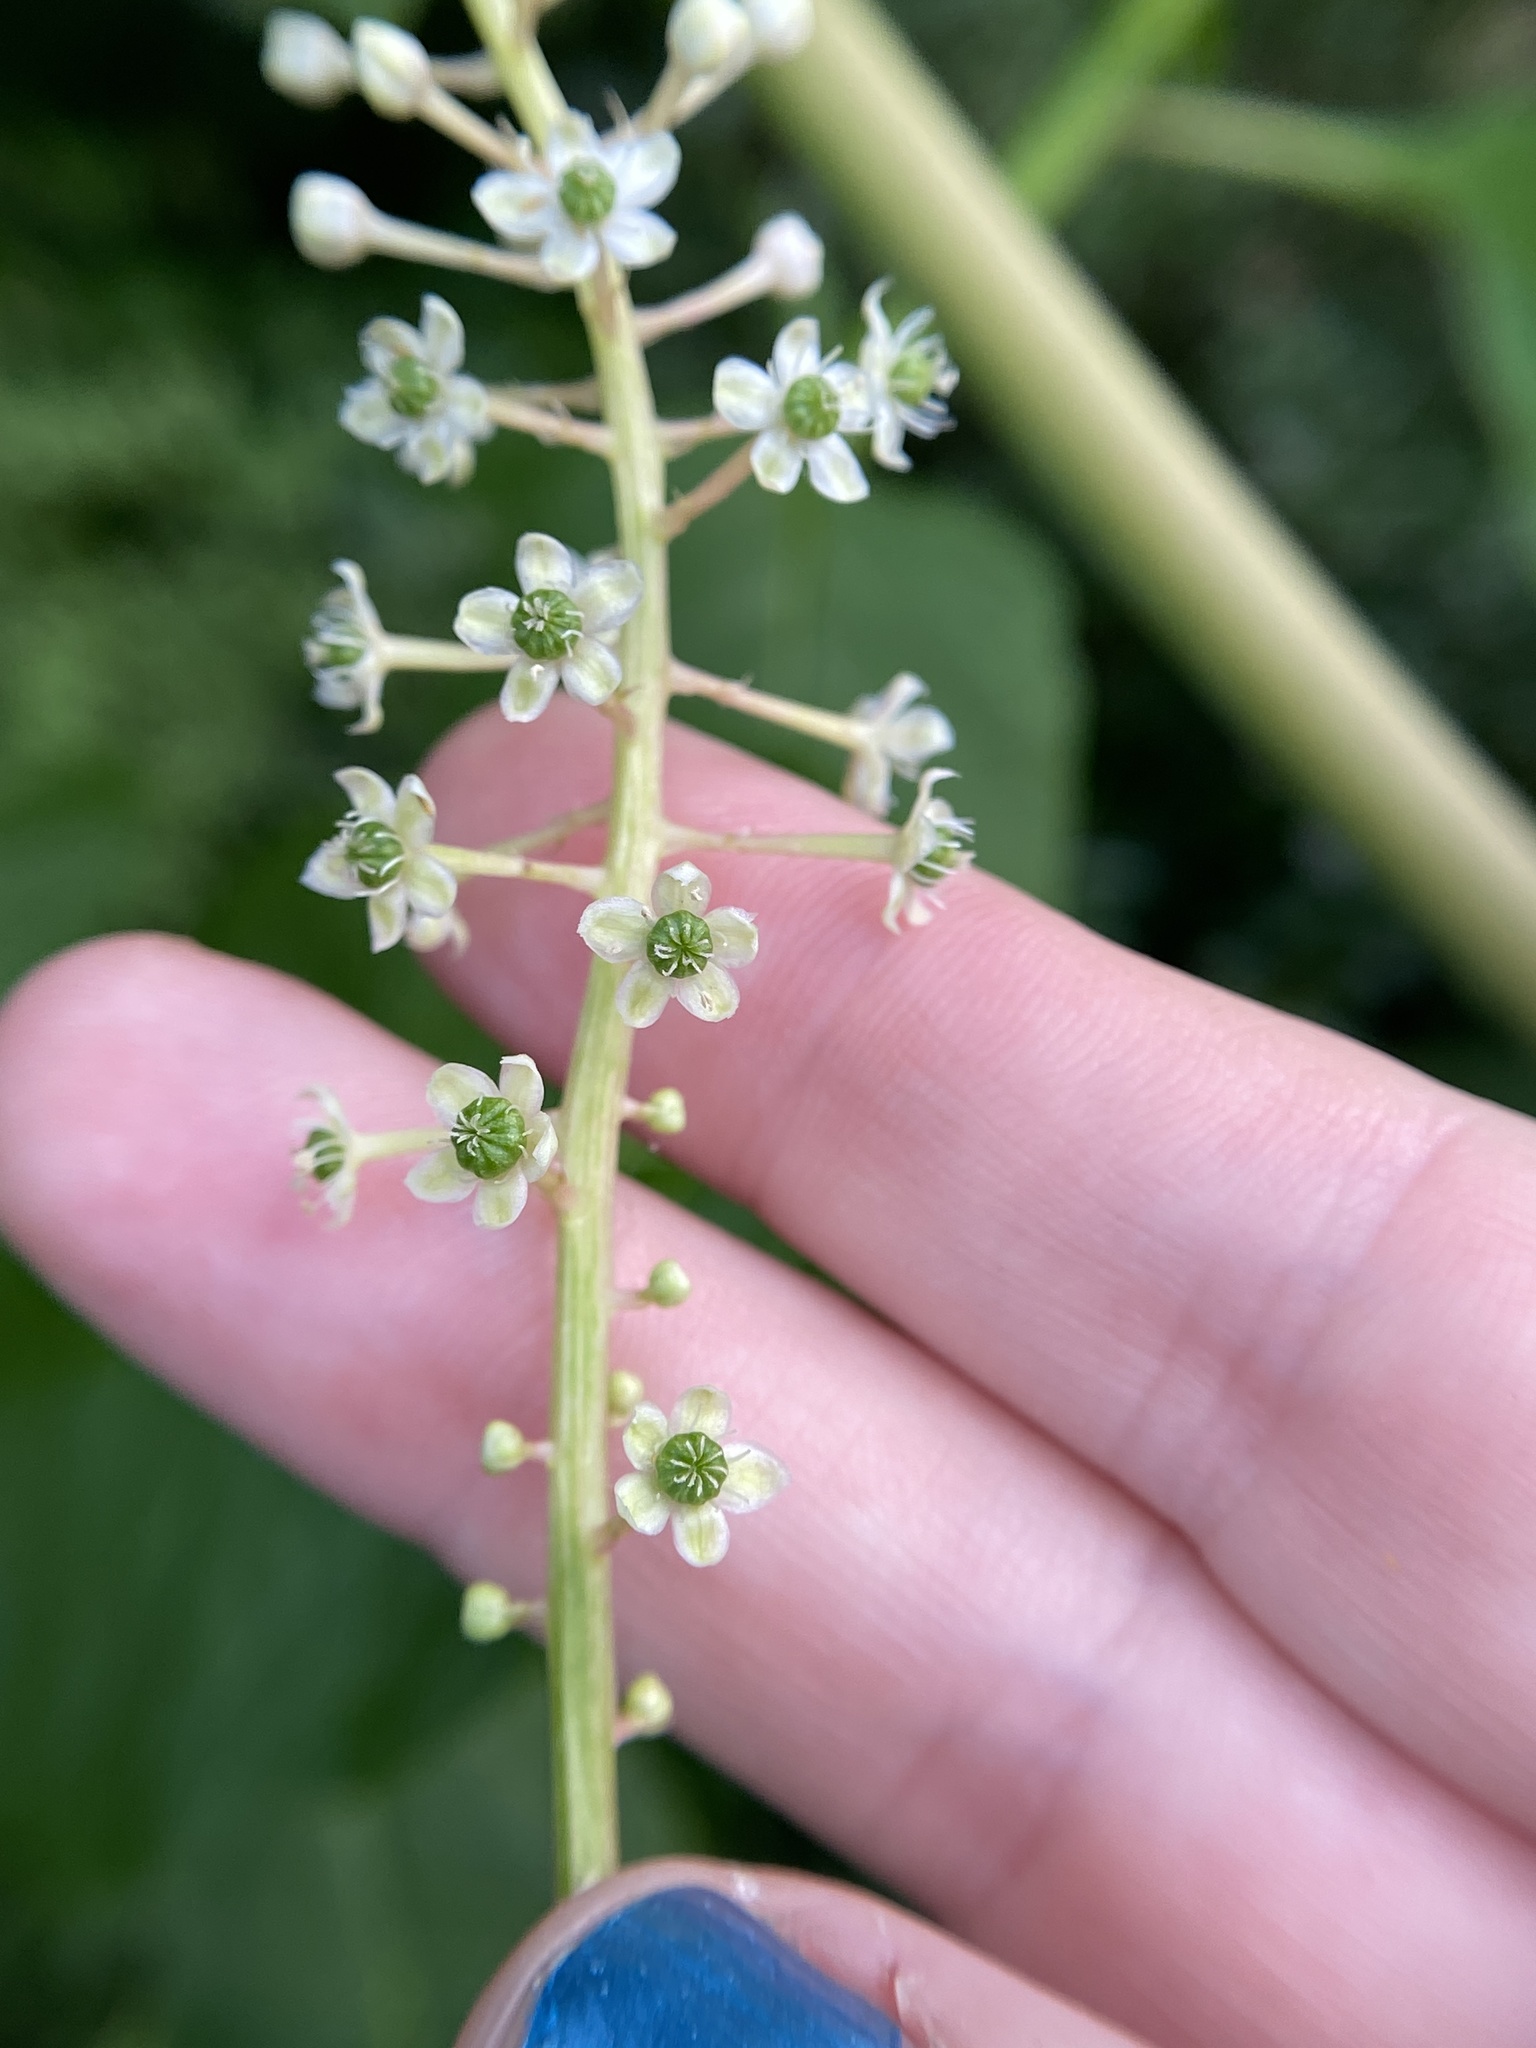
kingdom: Plantae
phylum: Tracheophyta
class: Magnoliopsida
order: Caryophyllales
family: Phytolaccaceae
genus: Phytolacca
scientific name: Phytolacca americana
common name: American pokeweed
